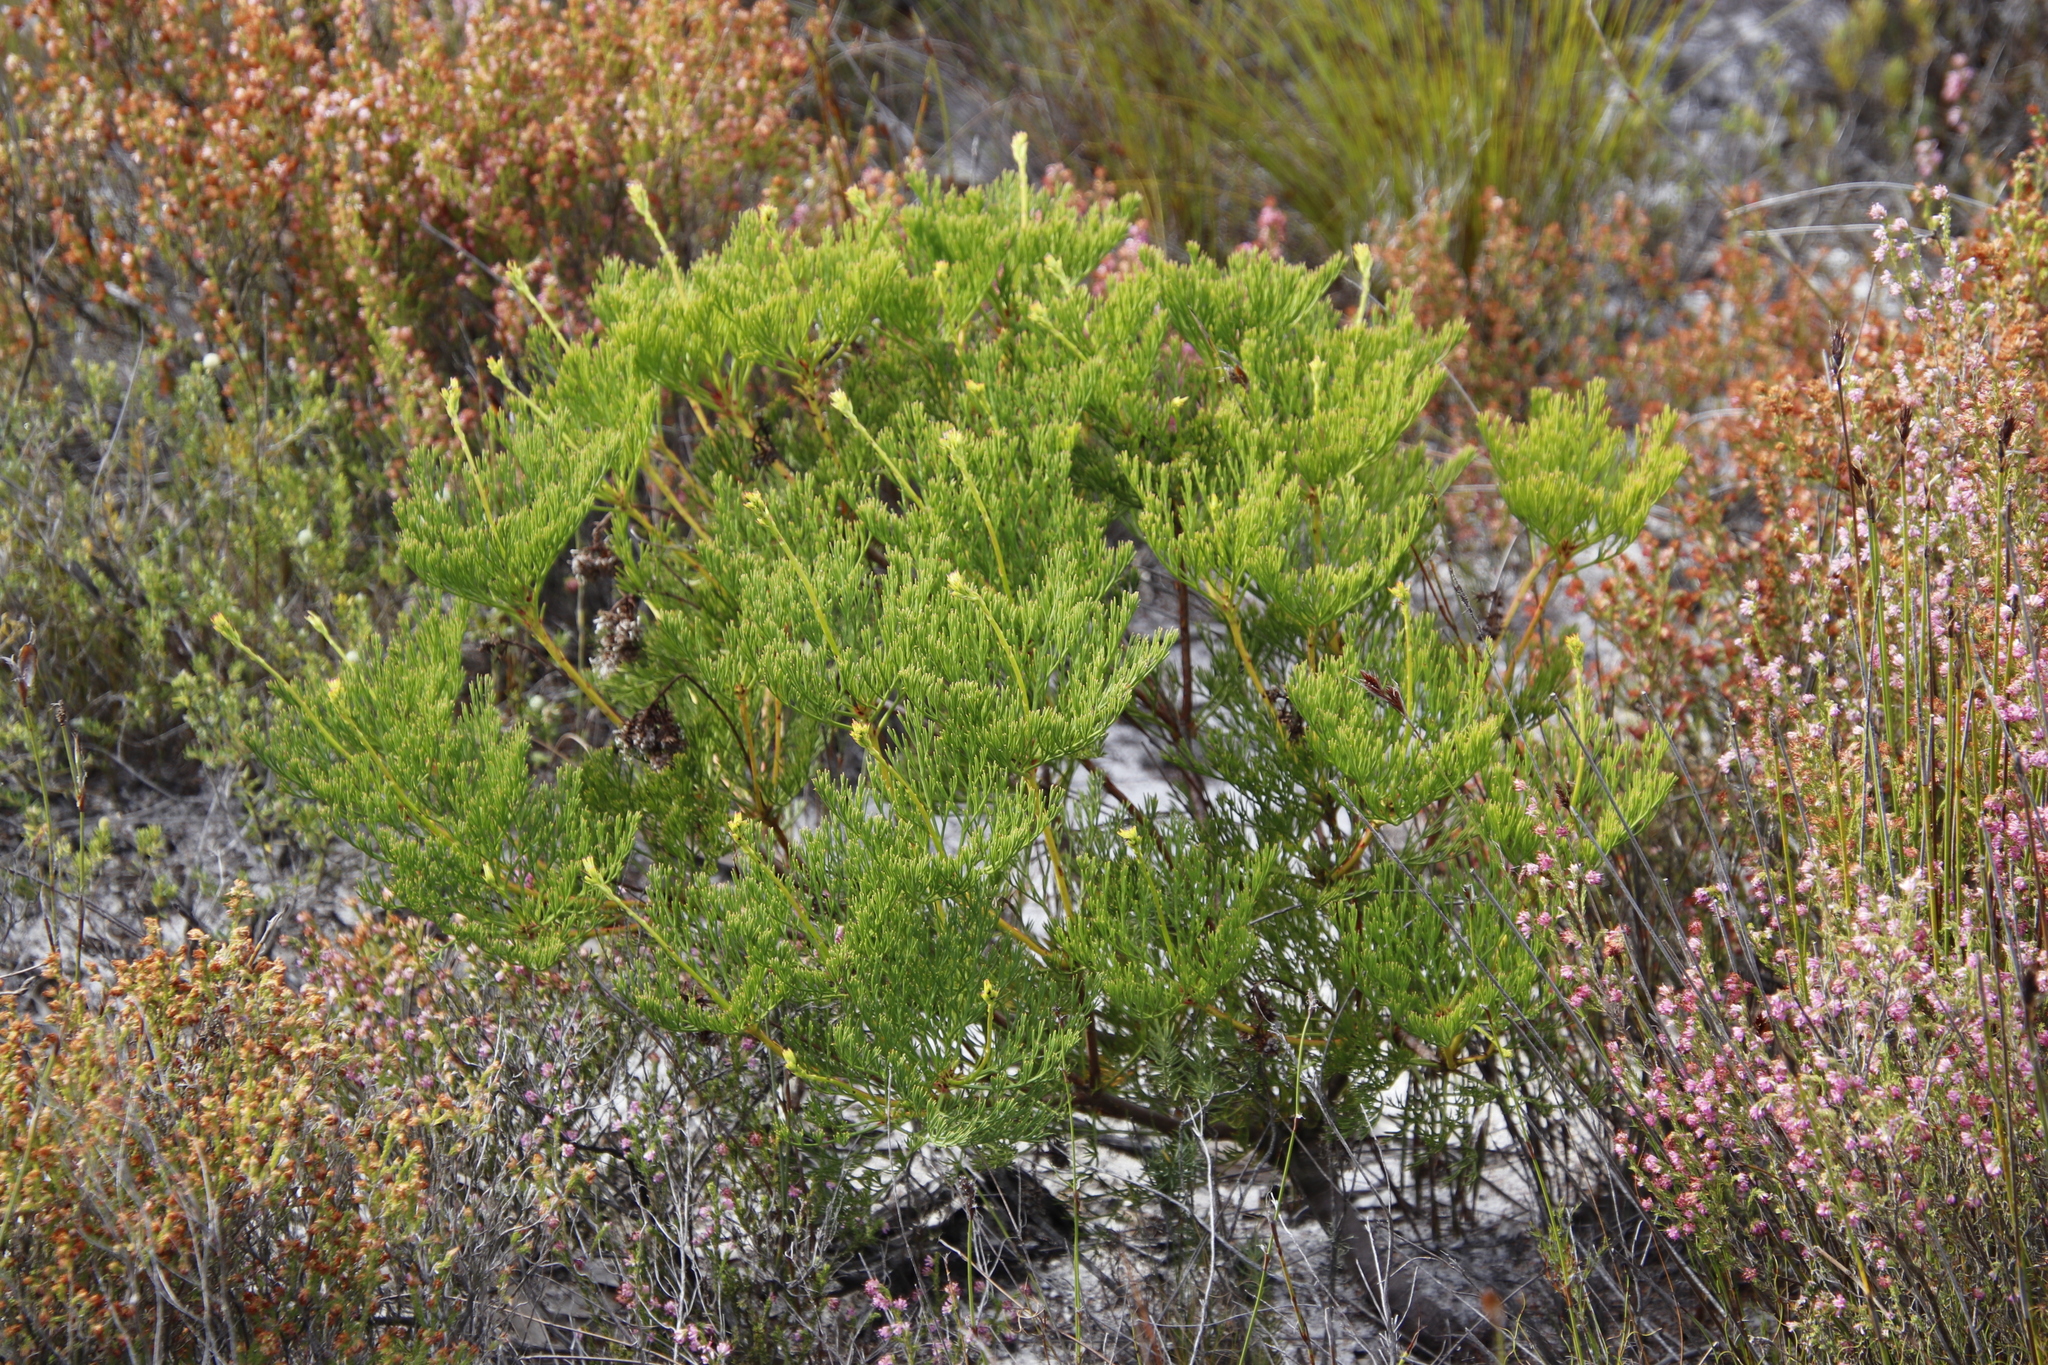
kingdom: Plantae
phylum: Tracheophyta
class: Magnoliopsida
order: Proteales
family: Proteaceae
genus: Serruria
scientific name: Serruria elongata
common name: Long-stalk spiderhead
